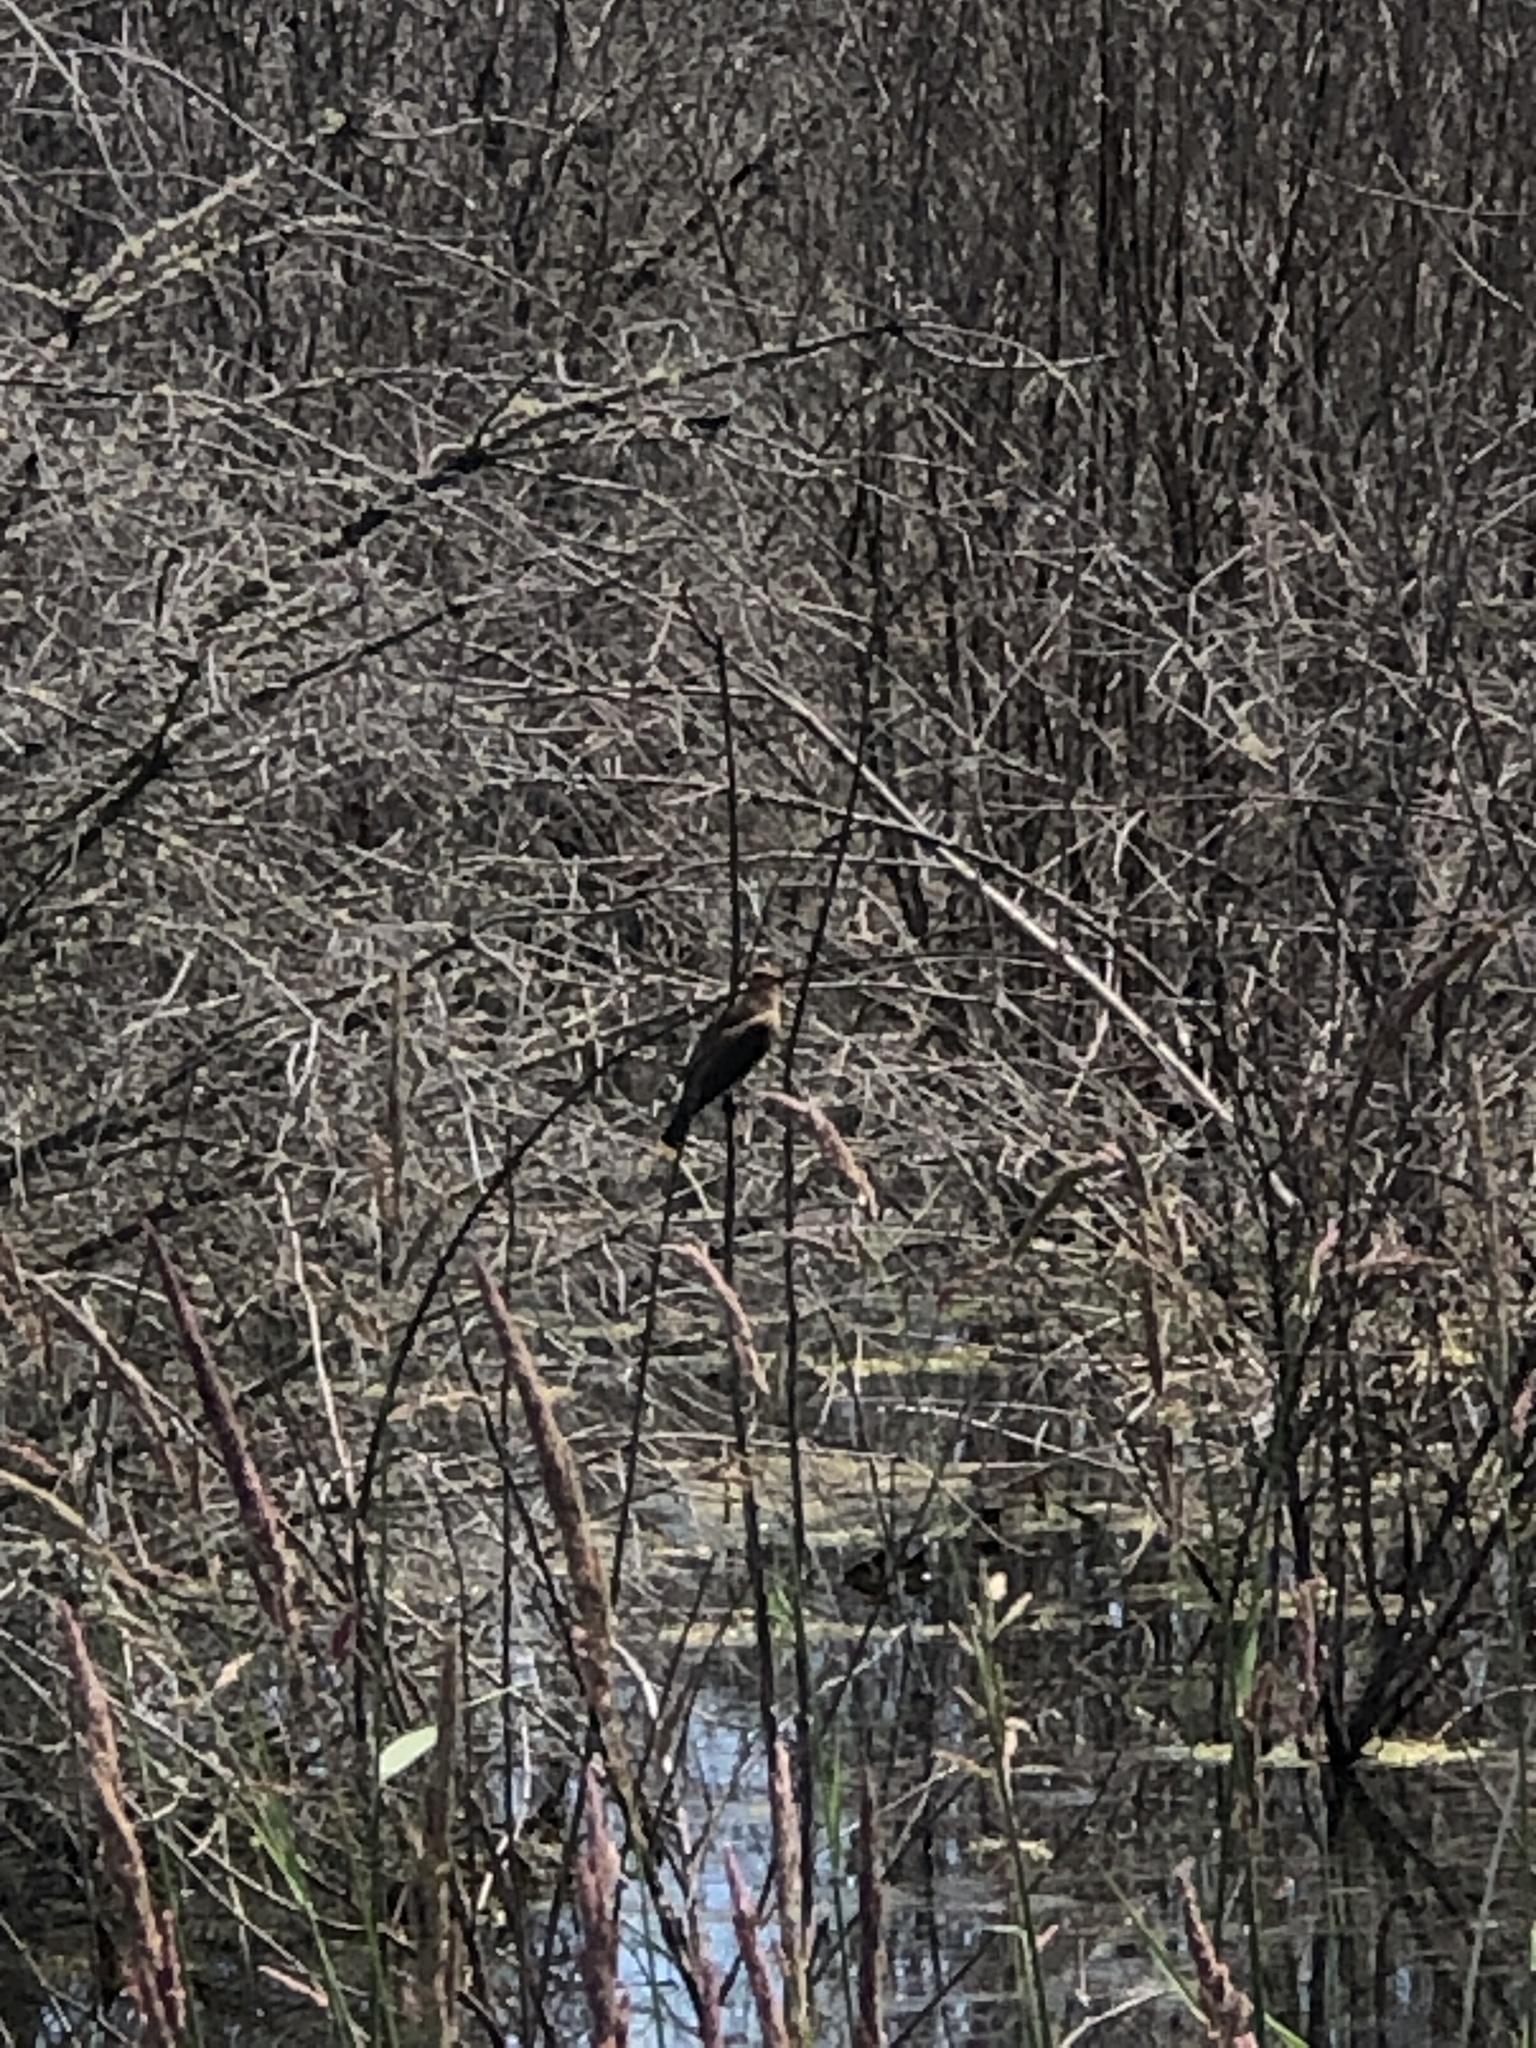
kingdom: Animalia
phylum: Chordata
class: Aves
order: Passeriformes
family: Icteridae
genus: Xanthocephalus
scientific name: Xanthocephalus xanthocephalus
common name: Yellow-headed blackbird
